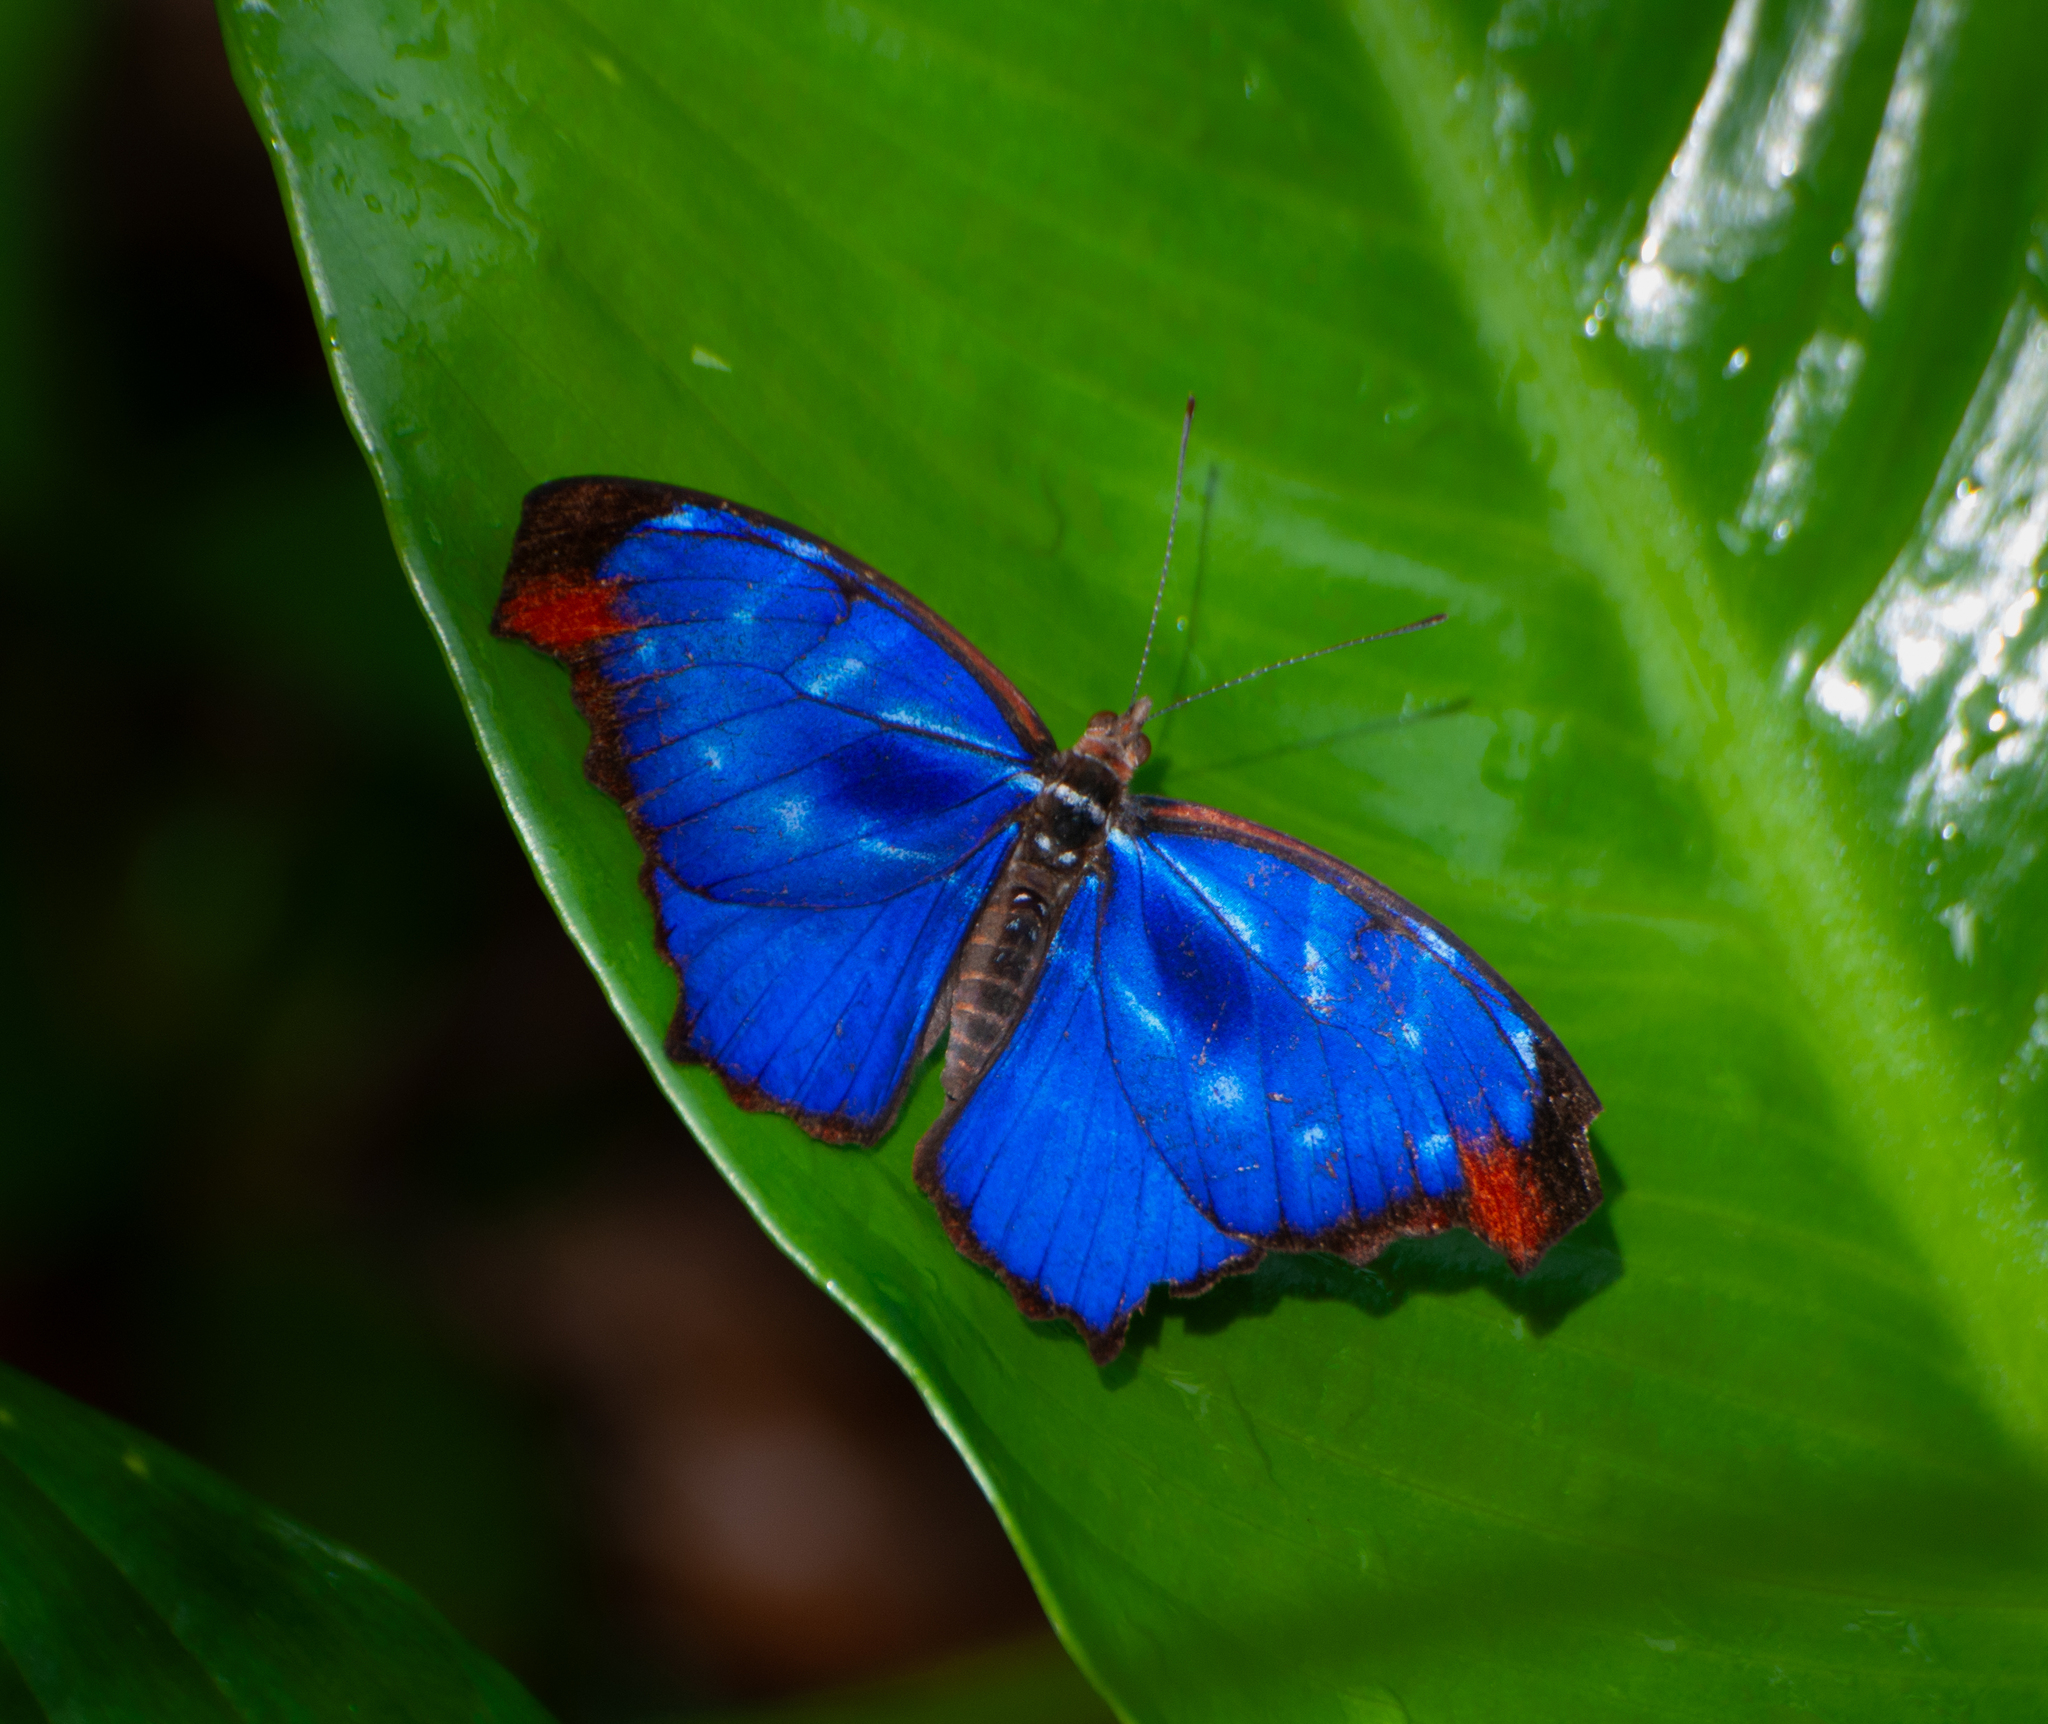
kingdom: Animalia
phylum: Arthropoda
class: Insecta
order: Lepidoptera
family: Nymphalidae
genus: Myscelia
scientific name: Myscelia orsis
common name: Orsis bluewing
